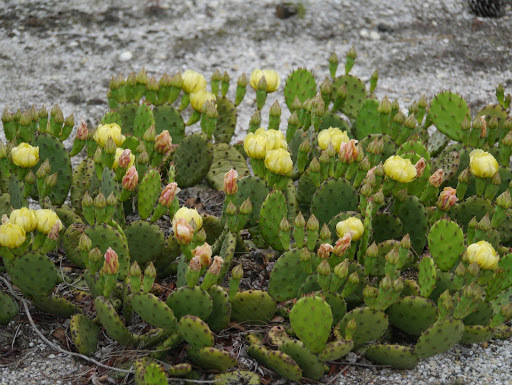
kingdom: Plantae
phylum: Tracheophyta
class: Magnoliopsida
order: Caryophyllales
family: Cactaceae
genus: Opuntia
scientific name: Opuntia humifusa
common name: Eastern prickly-pear
